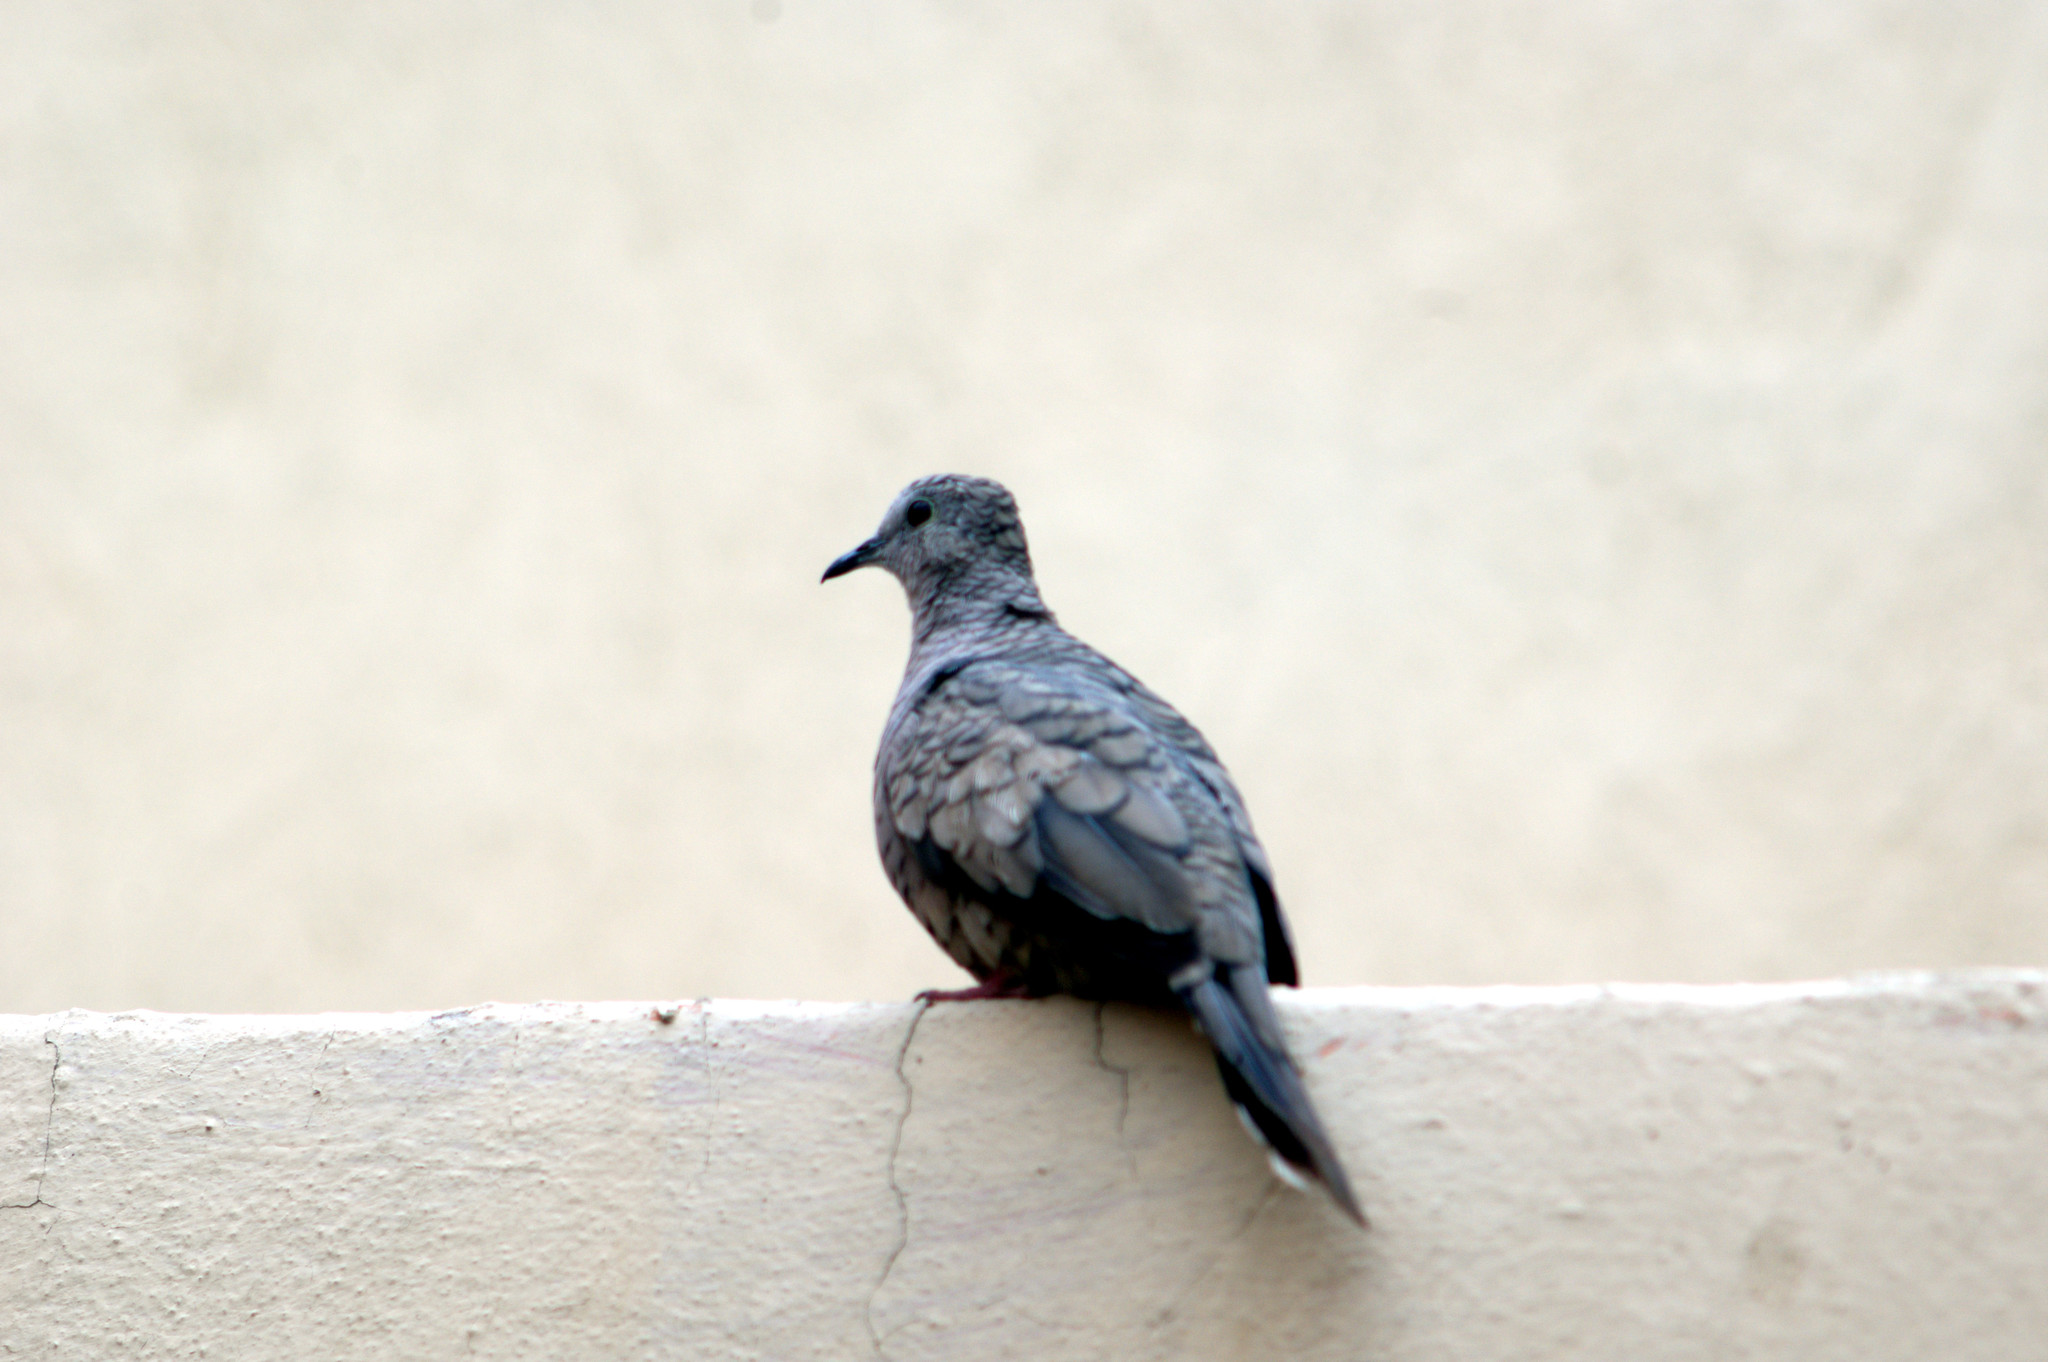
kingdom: Animalia
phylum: Chordata
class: Aves
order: Columbiformes
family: Columbidae
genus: Columbina
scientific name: Columbina inca
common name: Inca dove
